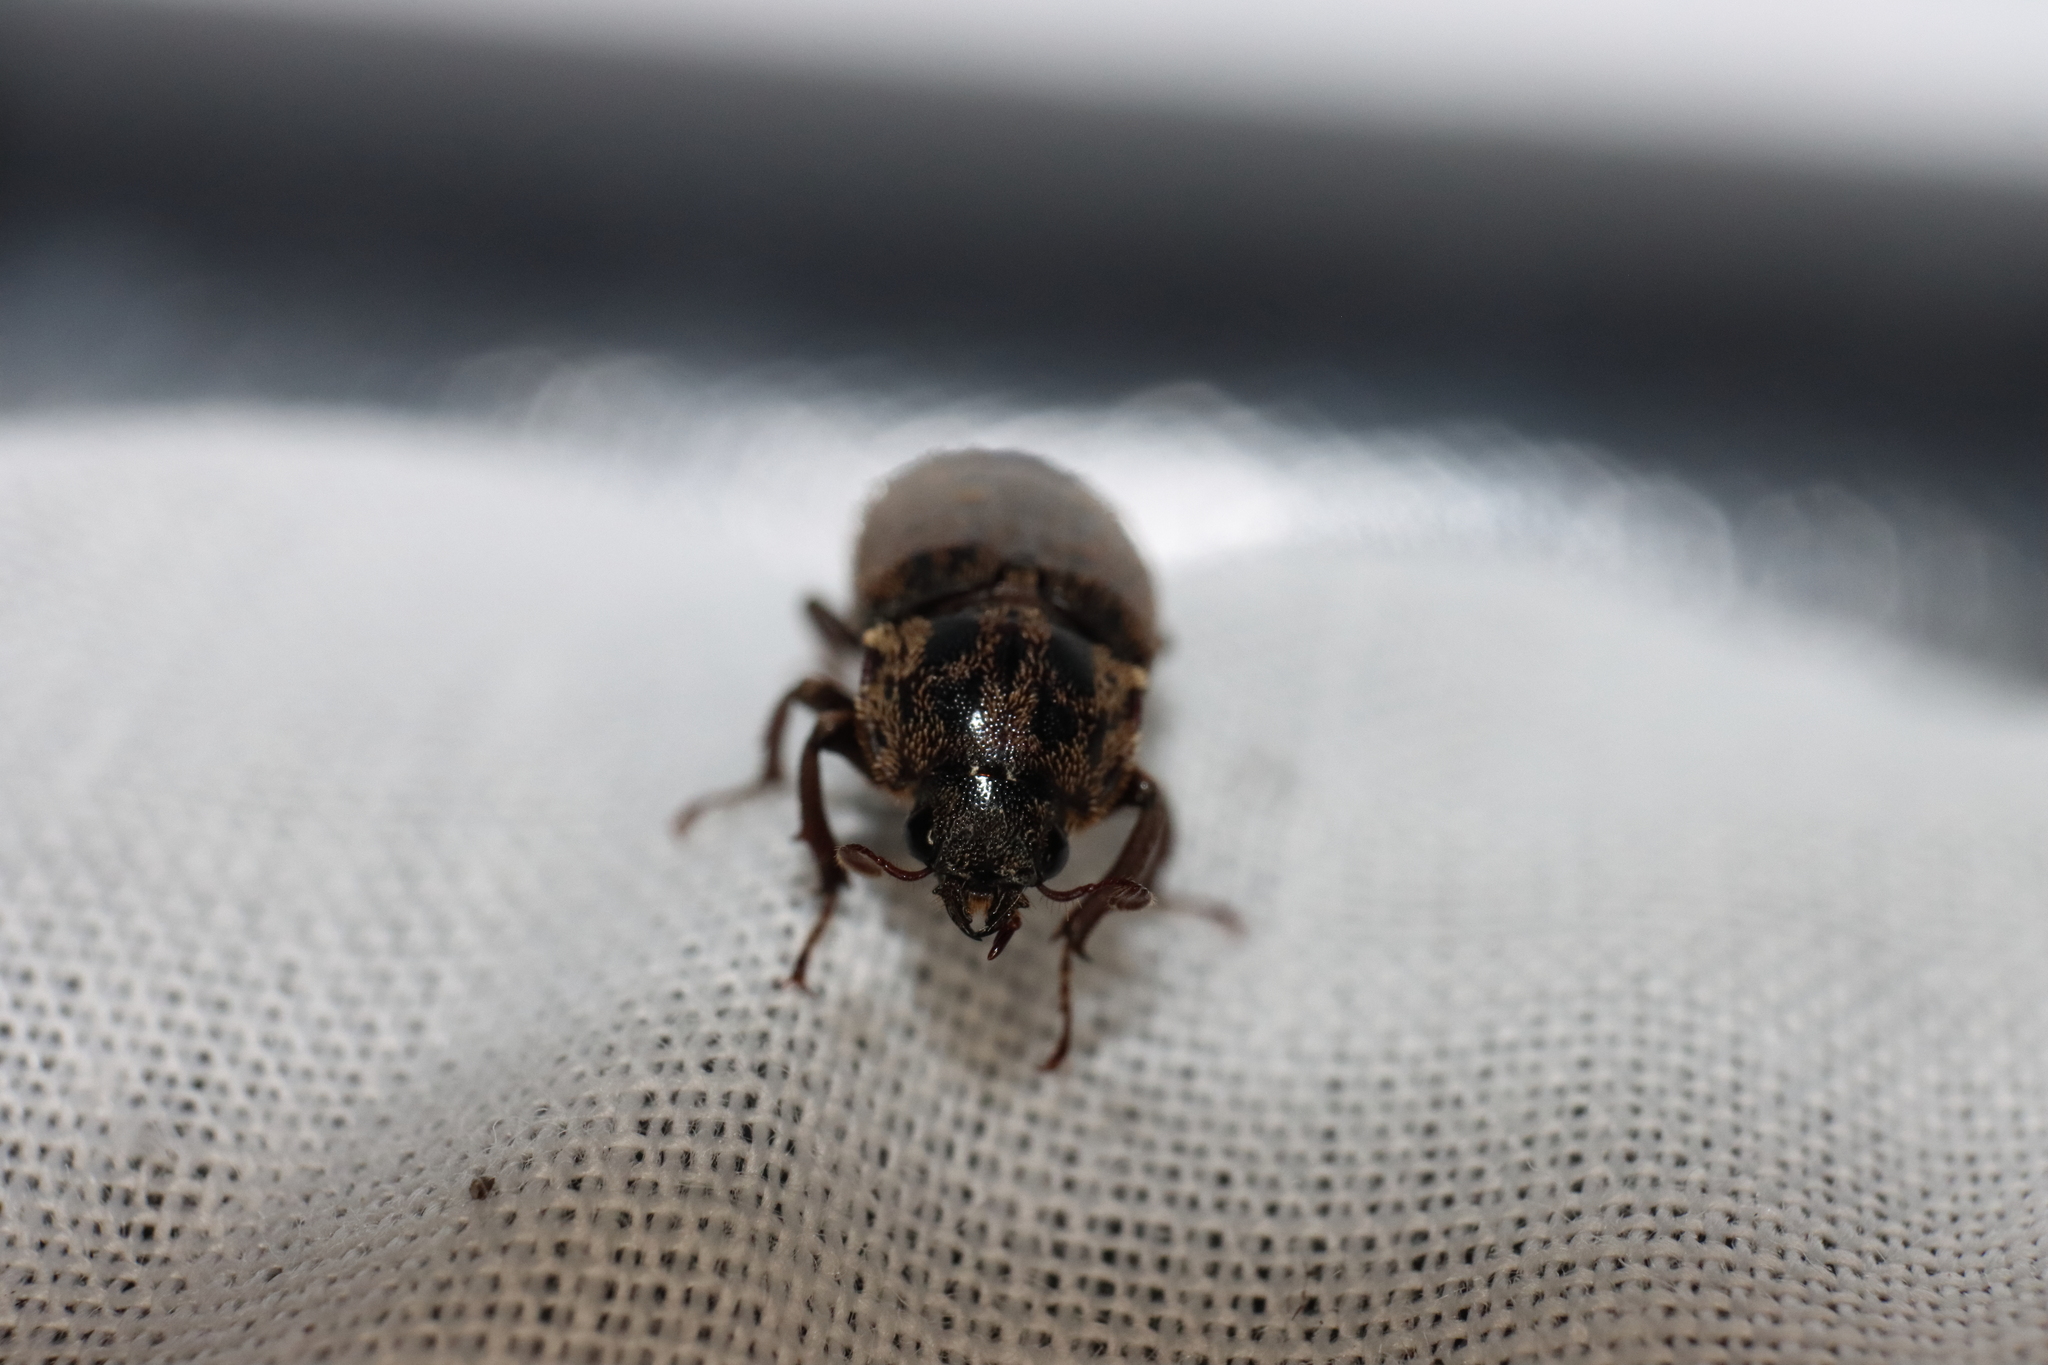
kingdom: Animalia
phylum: Arthropoda
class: Insecta
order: Coleoptera
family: Lucanidae
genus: Mitophyllus
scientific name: Mitophyllus irroratus
